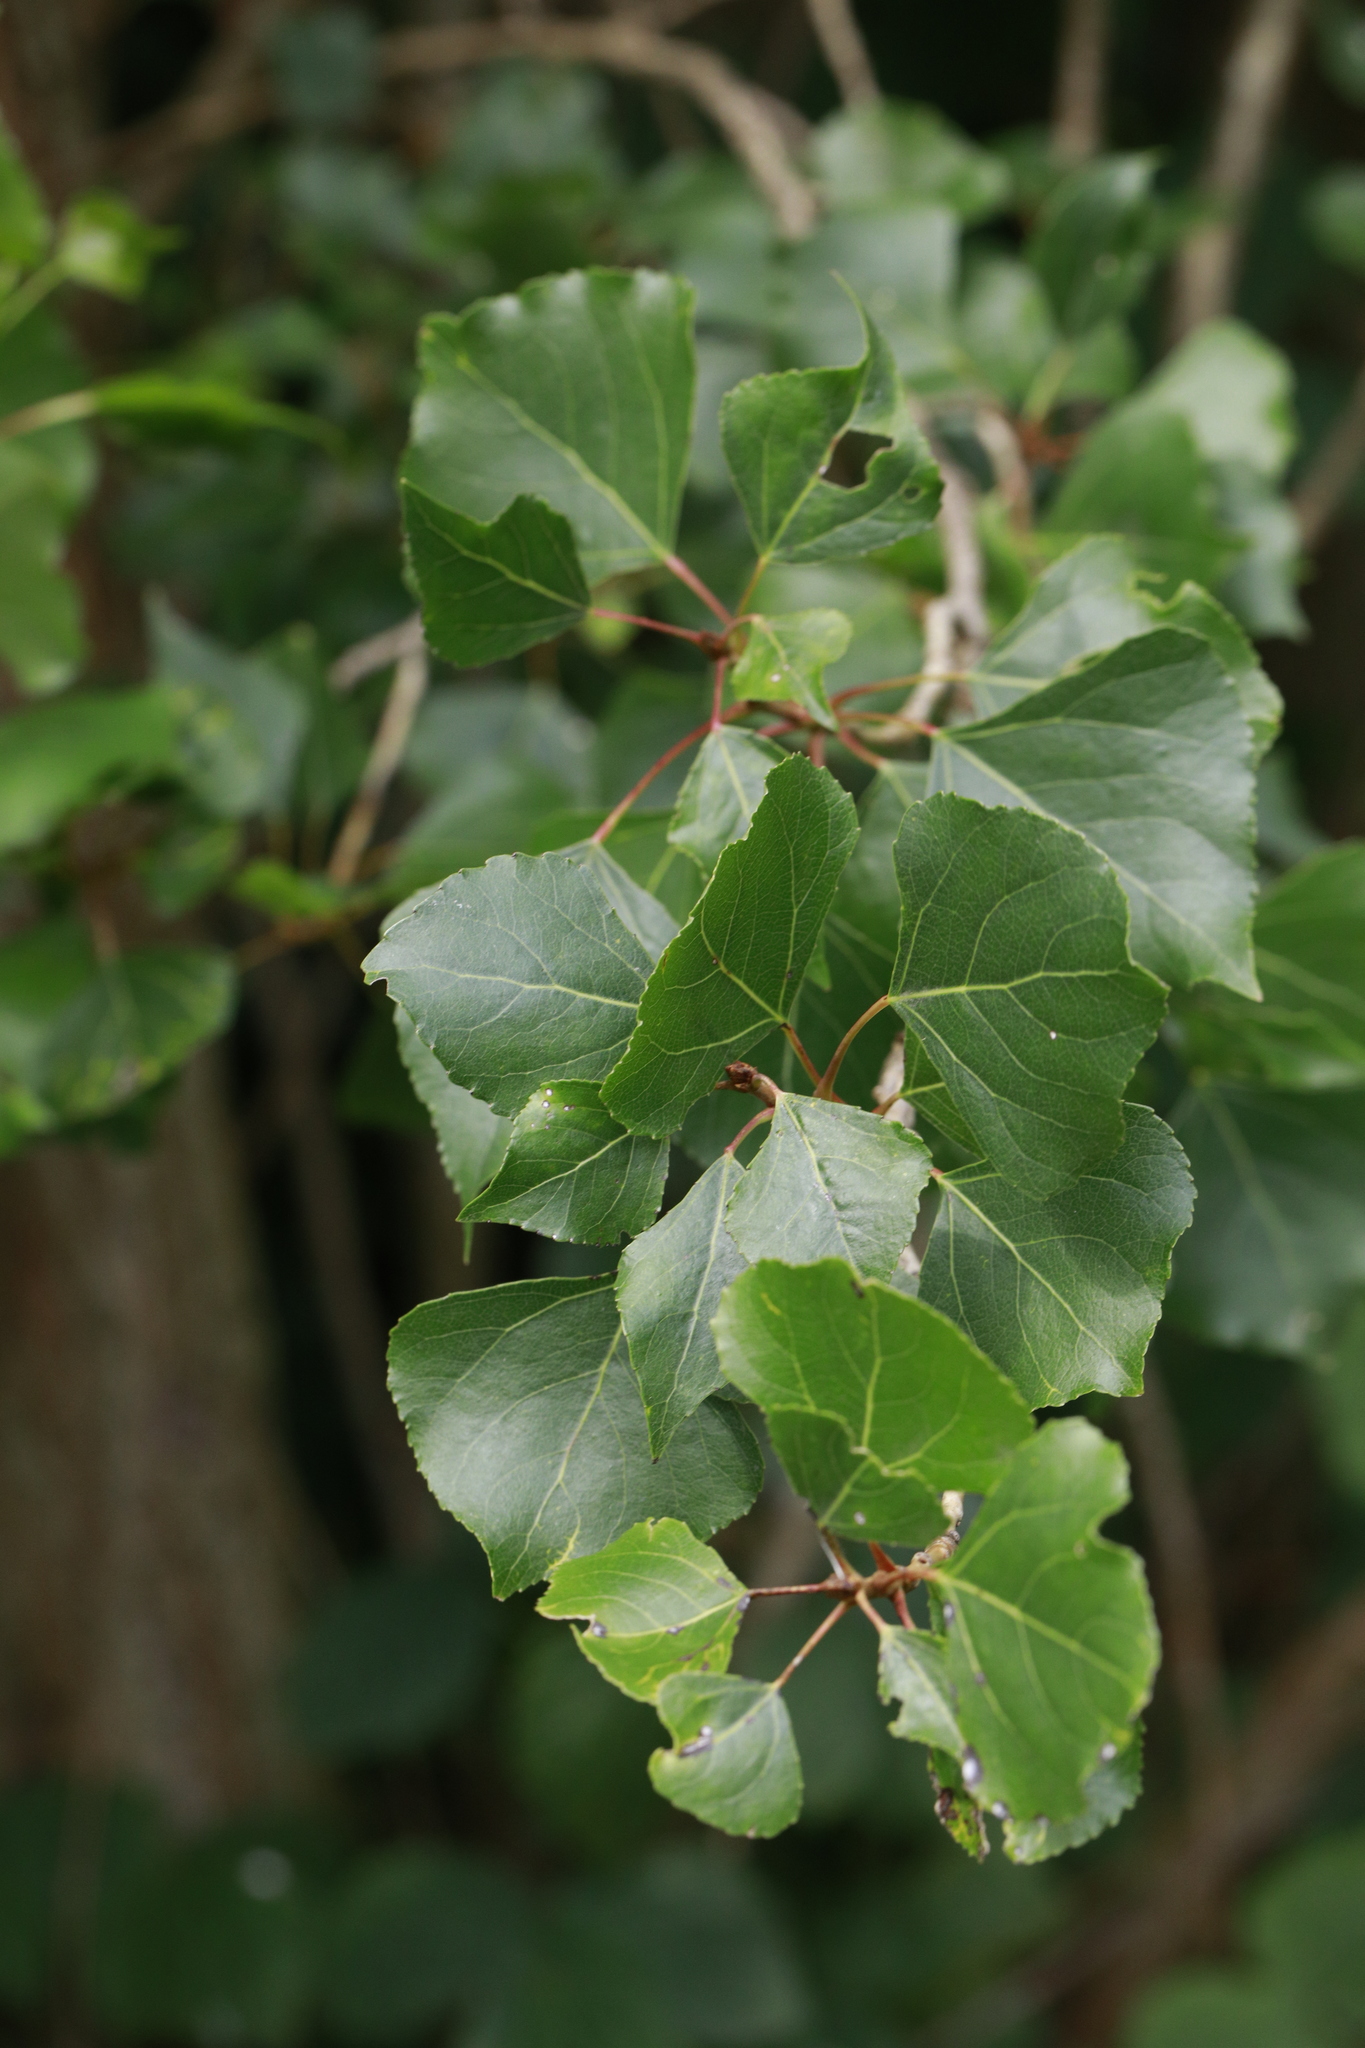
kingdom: Plantae
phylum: Tracheophyta
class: Magnoliopsida
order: Malpighiales
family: Salicaceae
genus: Populus
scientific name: Populus nigra
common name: Black poplar
